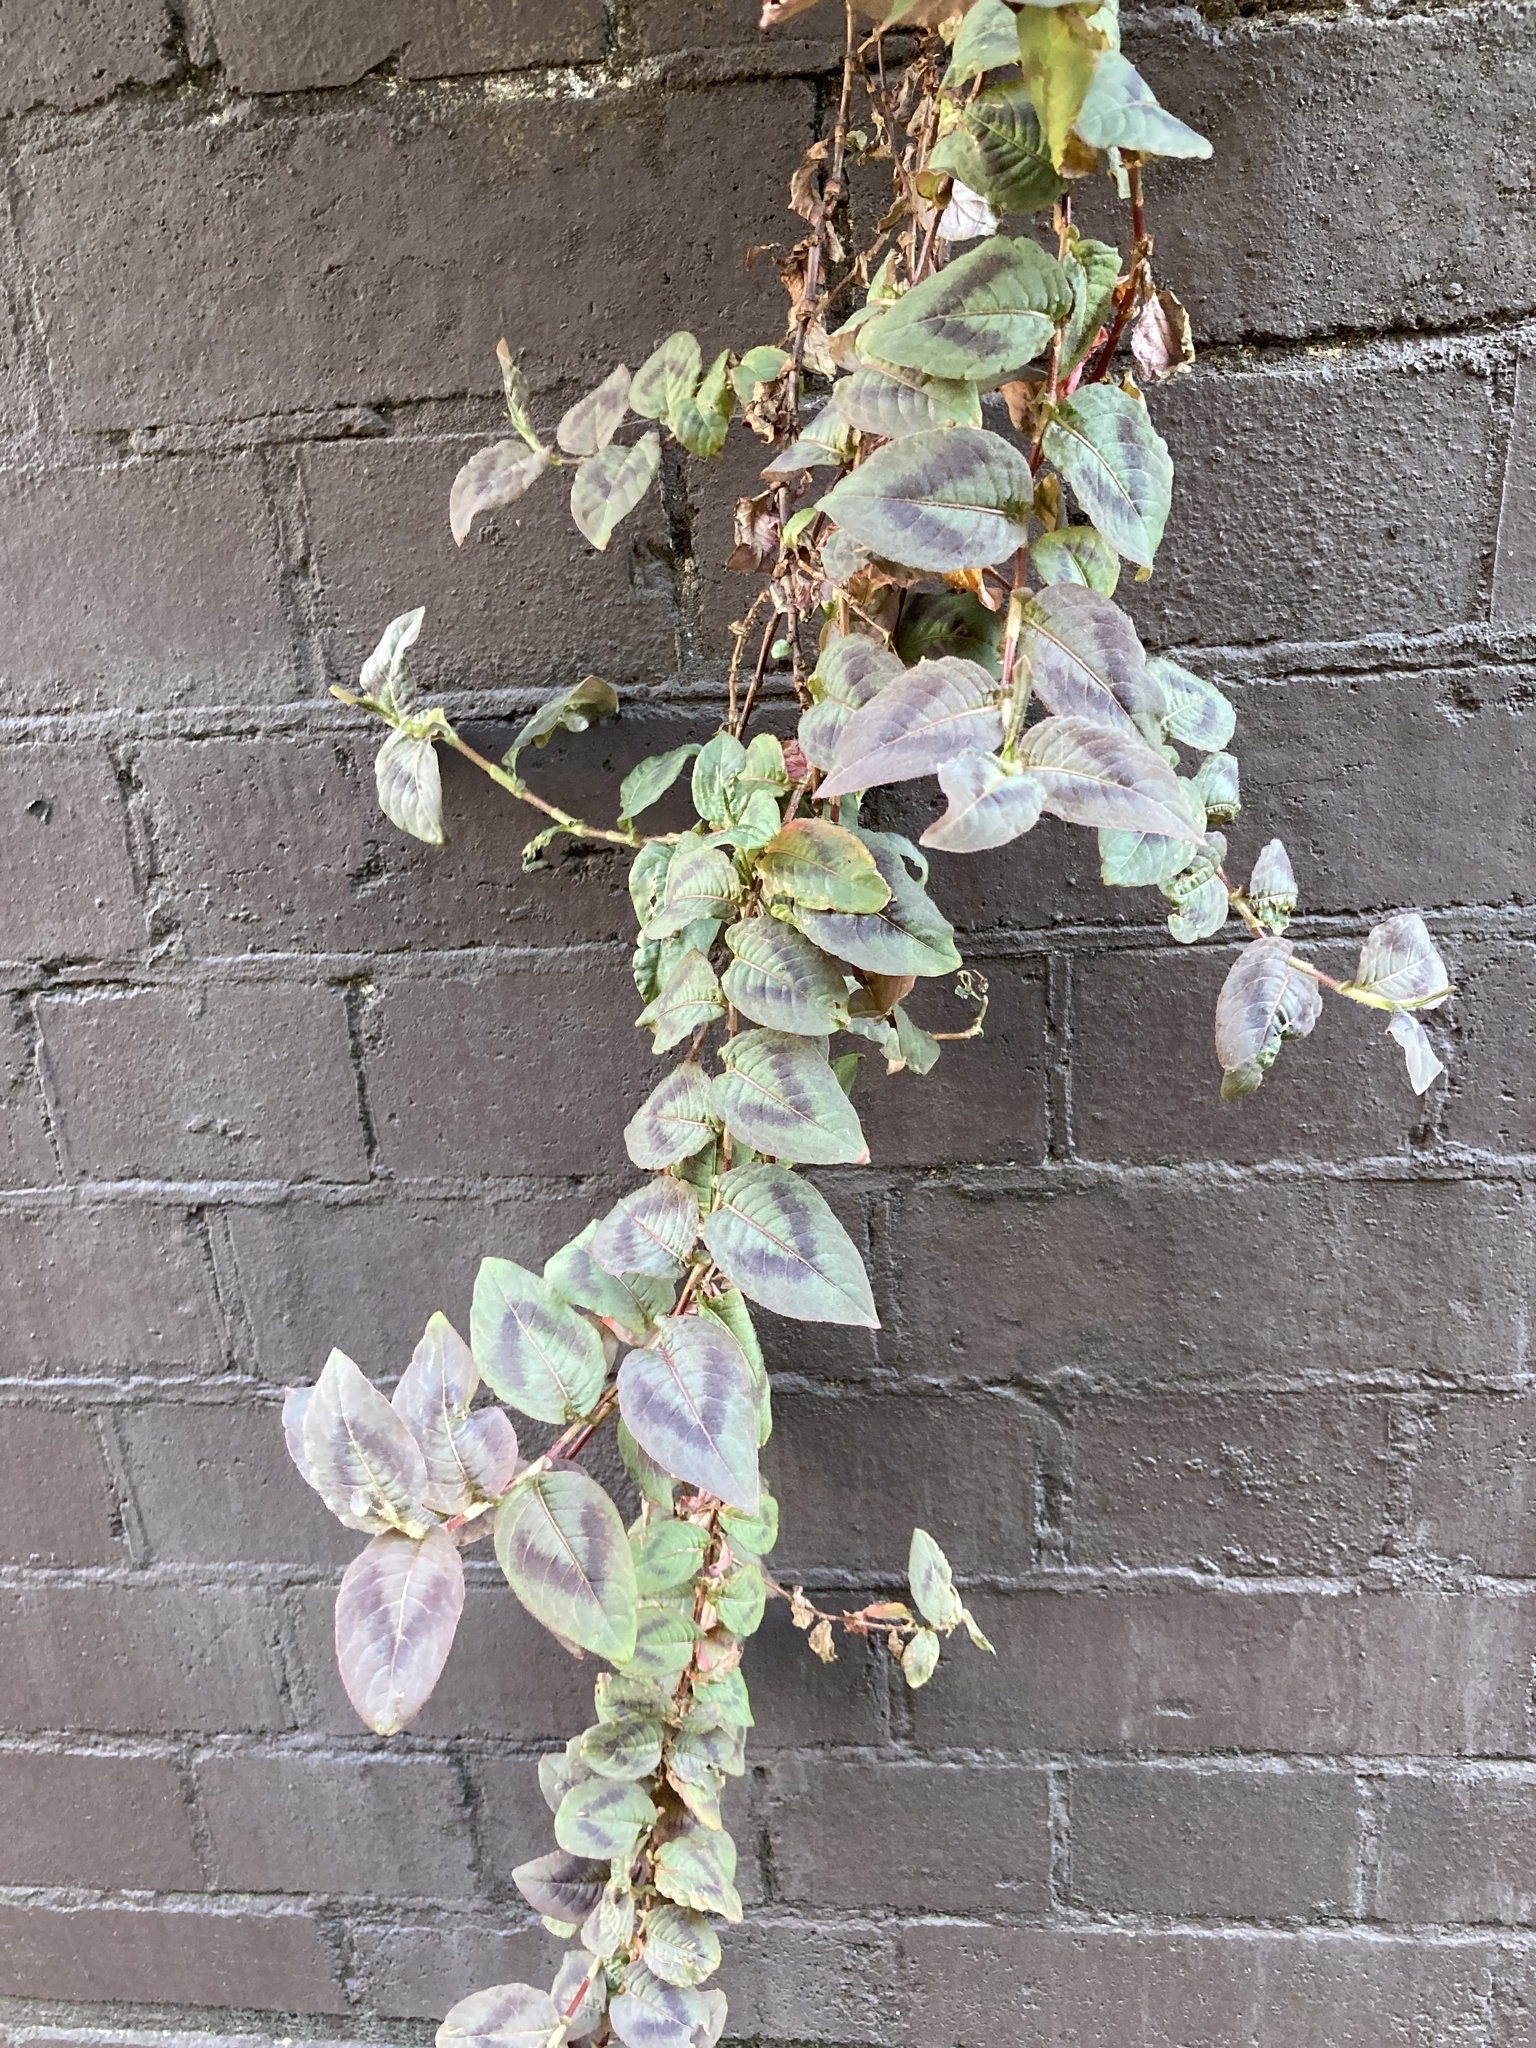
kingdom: Plantae
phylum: Tracheophyta
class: Magnoliopsida
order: Caryophyllales
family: Polygonaceae
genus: Persicaria
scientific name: Persicaria capitata
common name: Pinkhead smartweed
